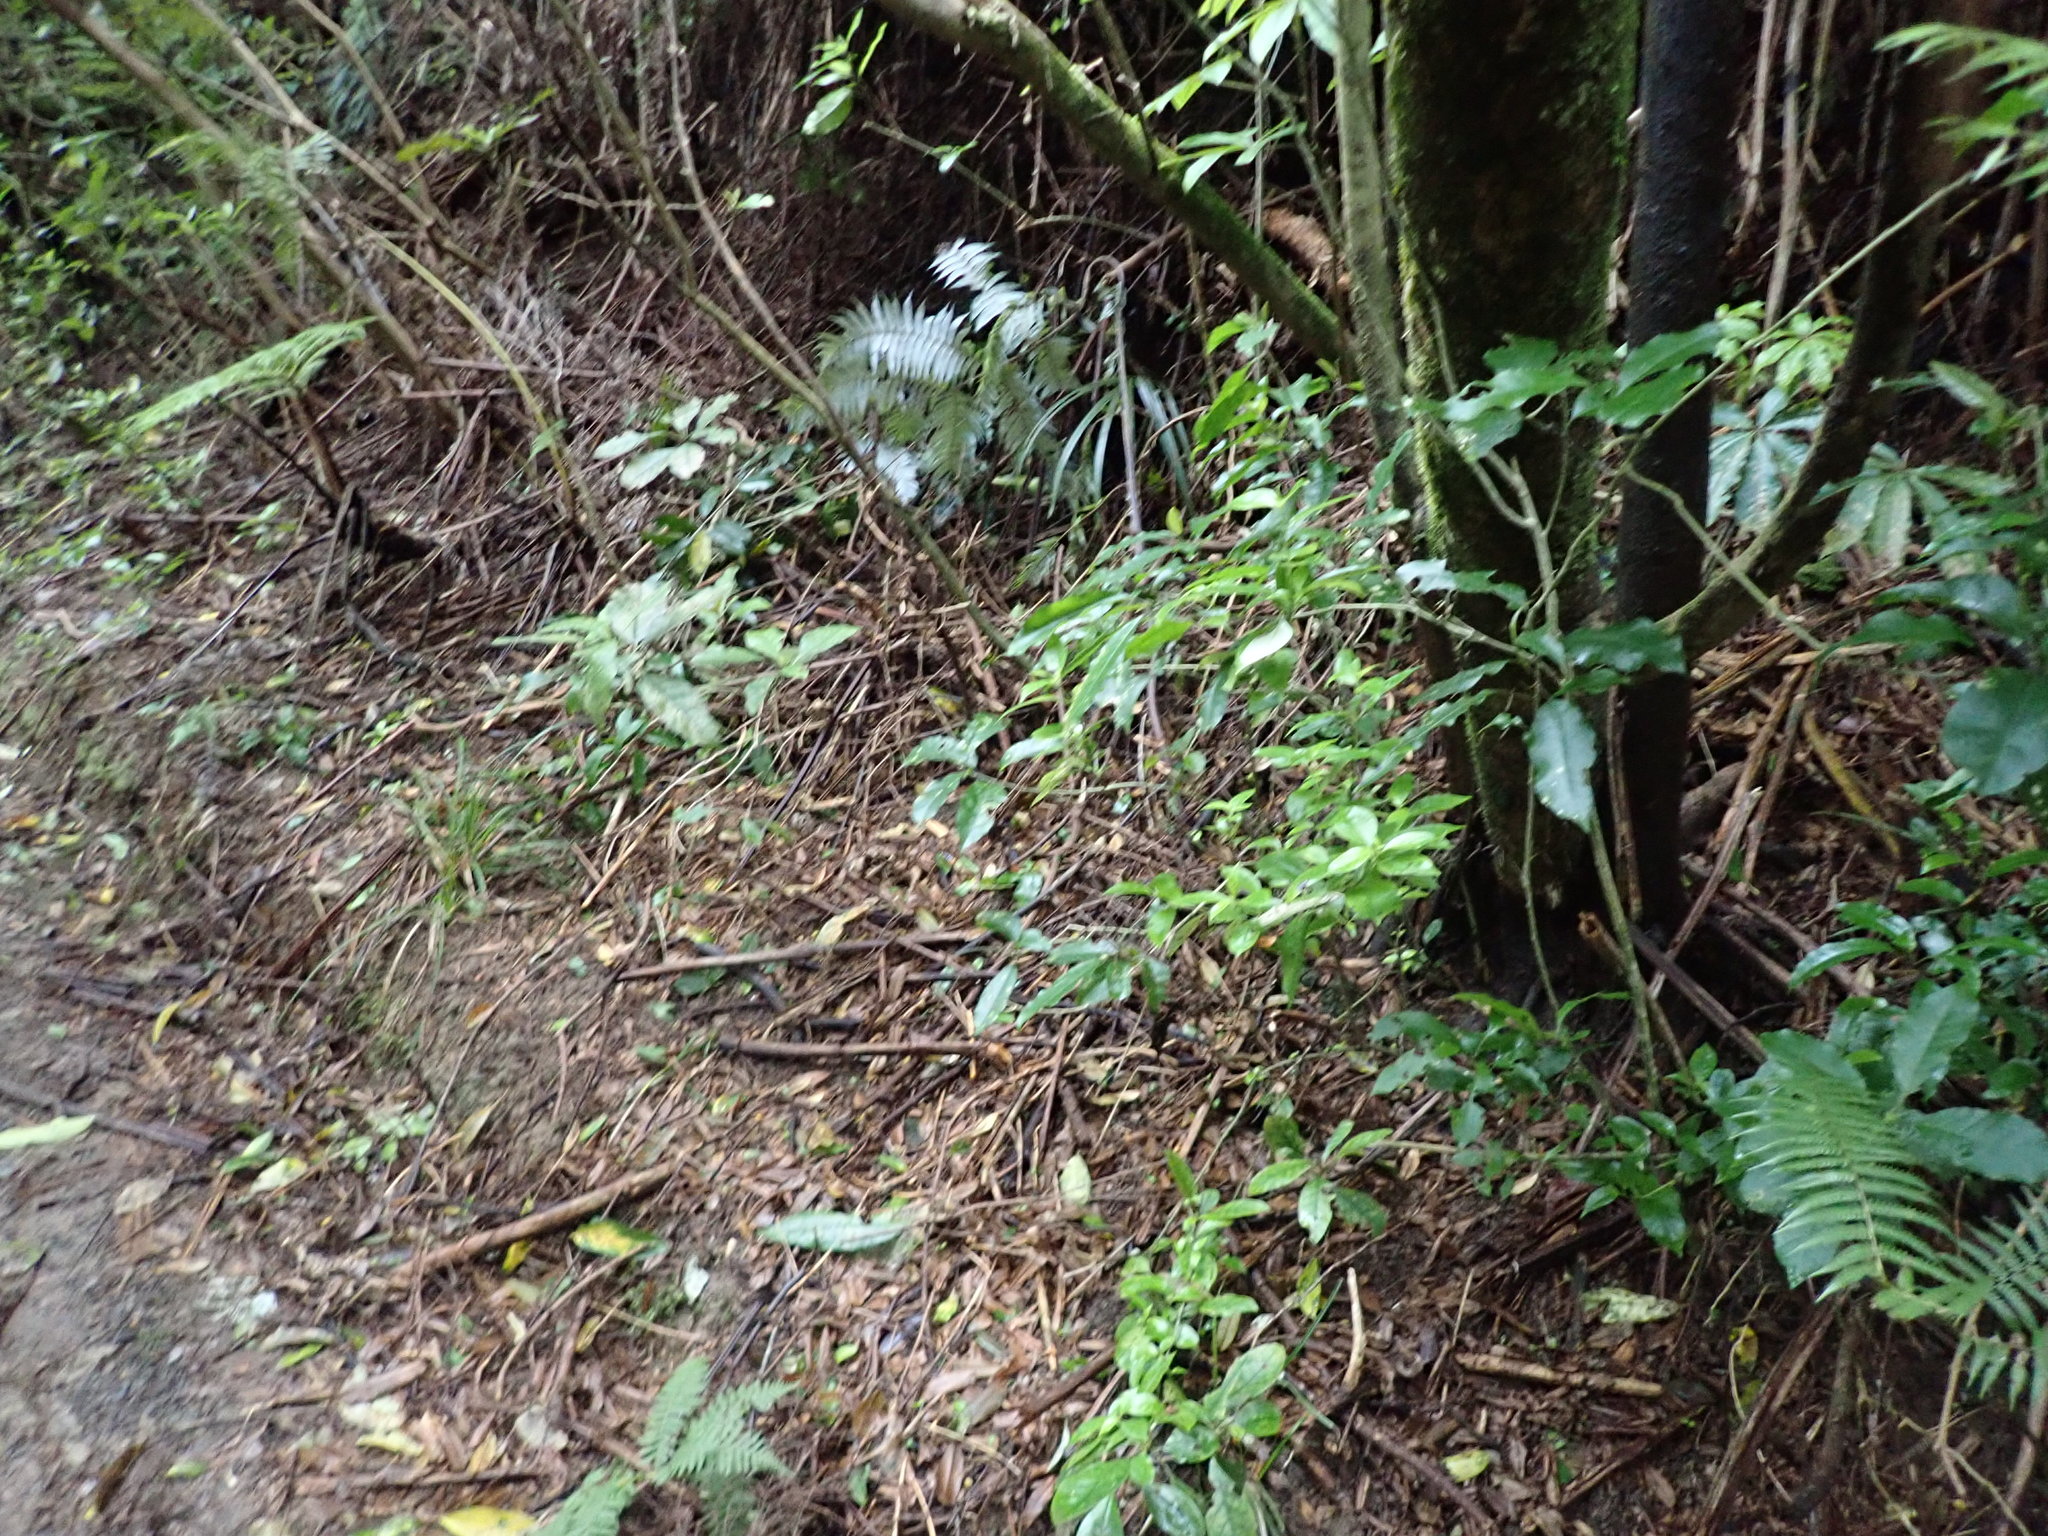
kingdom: Plantae
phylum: Tracheophyta
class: Magnoliopsida
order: Malpighiales
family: Violaceae
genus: Melicytus
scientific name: Melicytus ramiflorus
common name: Mahoe
